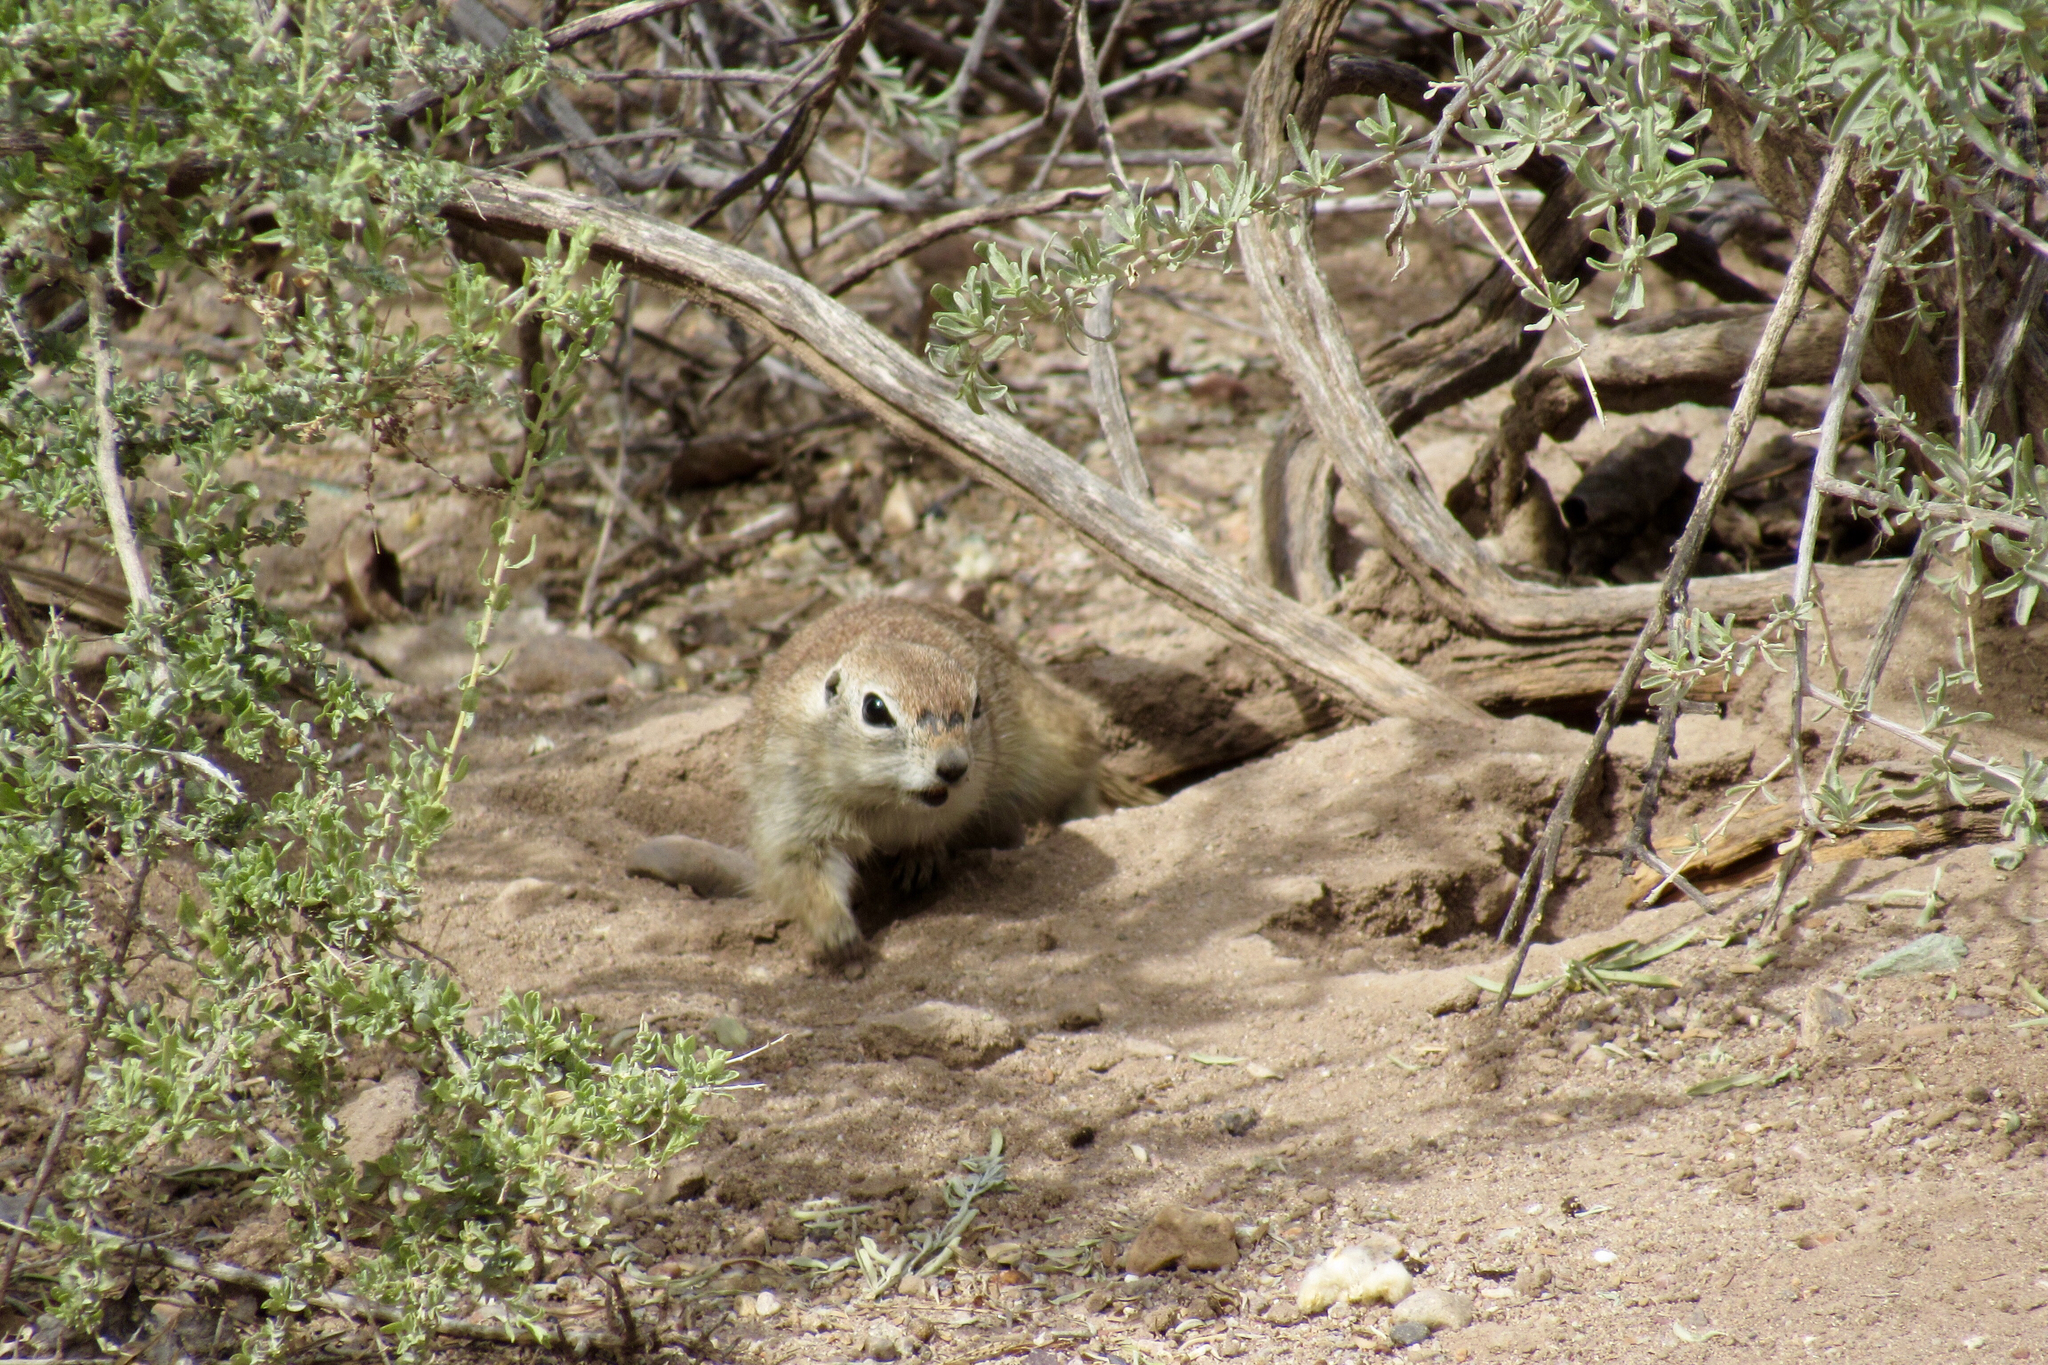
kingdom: Animalia
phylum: Chordata
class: Mammalia
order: Rodentia
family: Sciuridae
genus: Xerospermophilus
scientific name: Xerospermophilus tereticaudus
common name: Round-tailed ground squirrel
